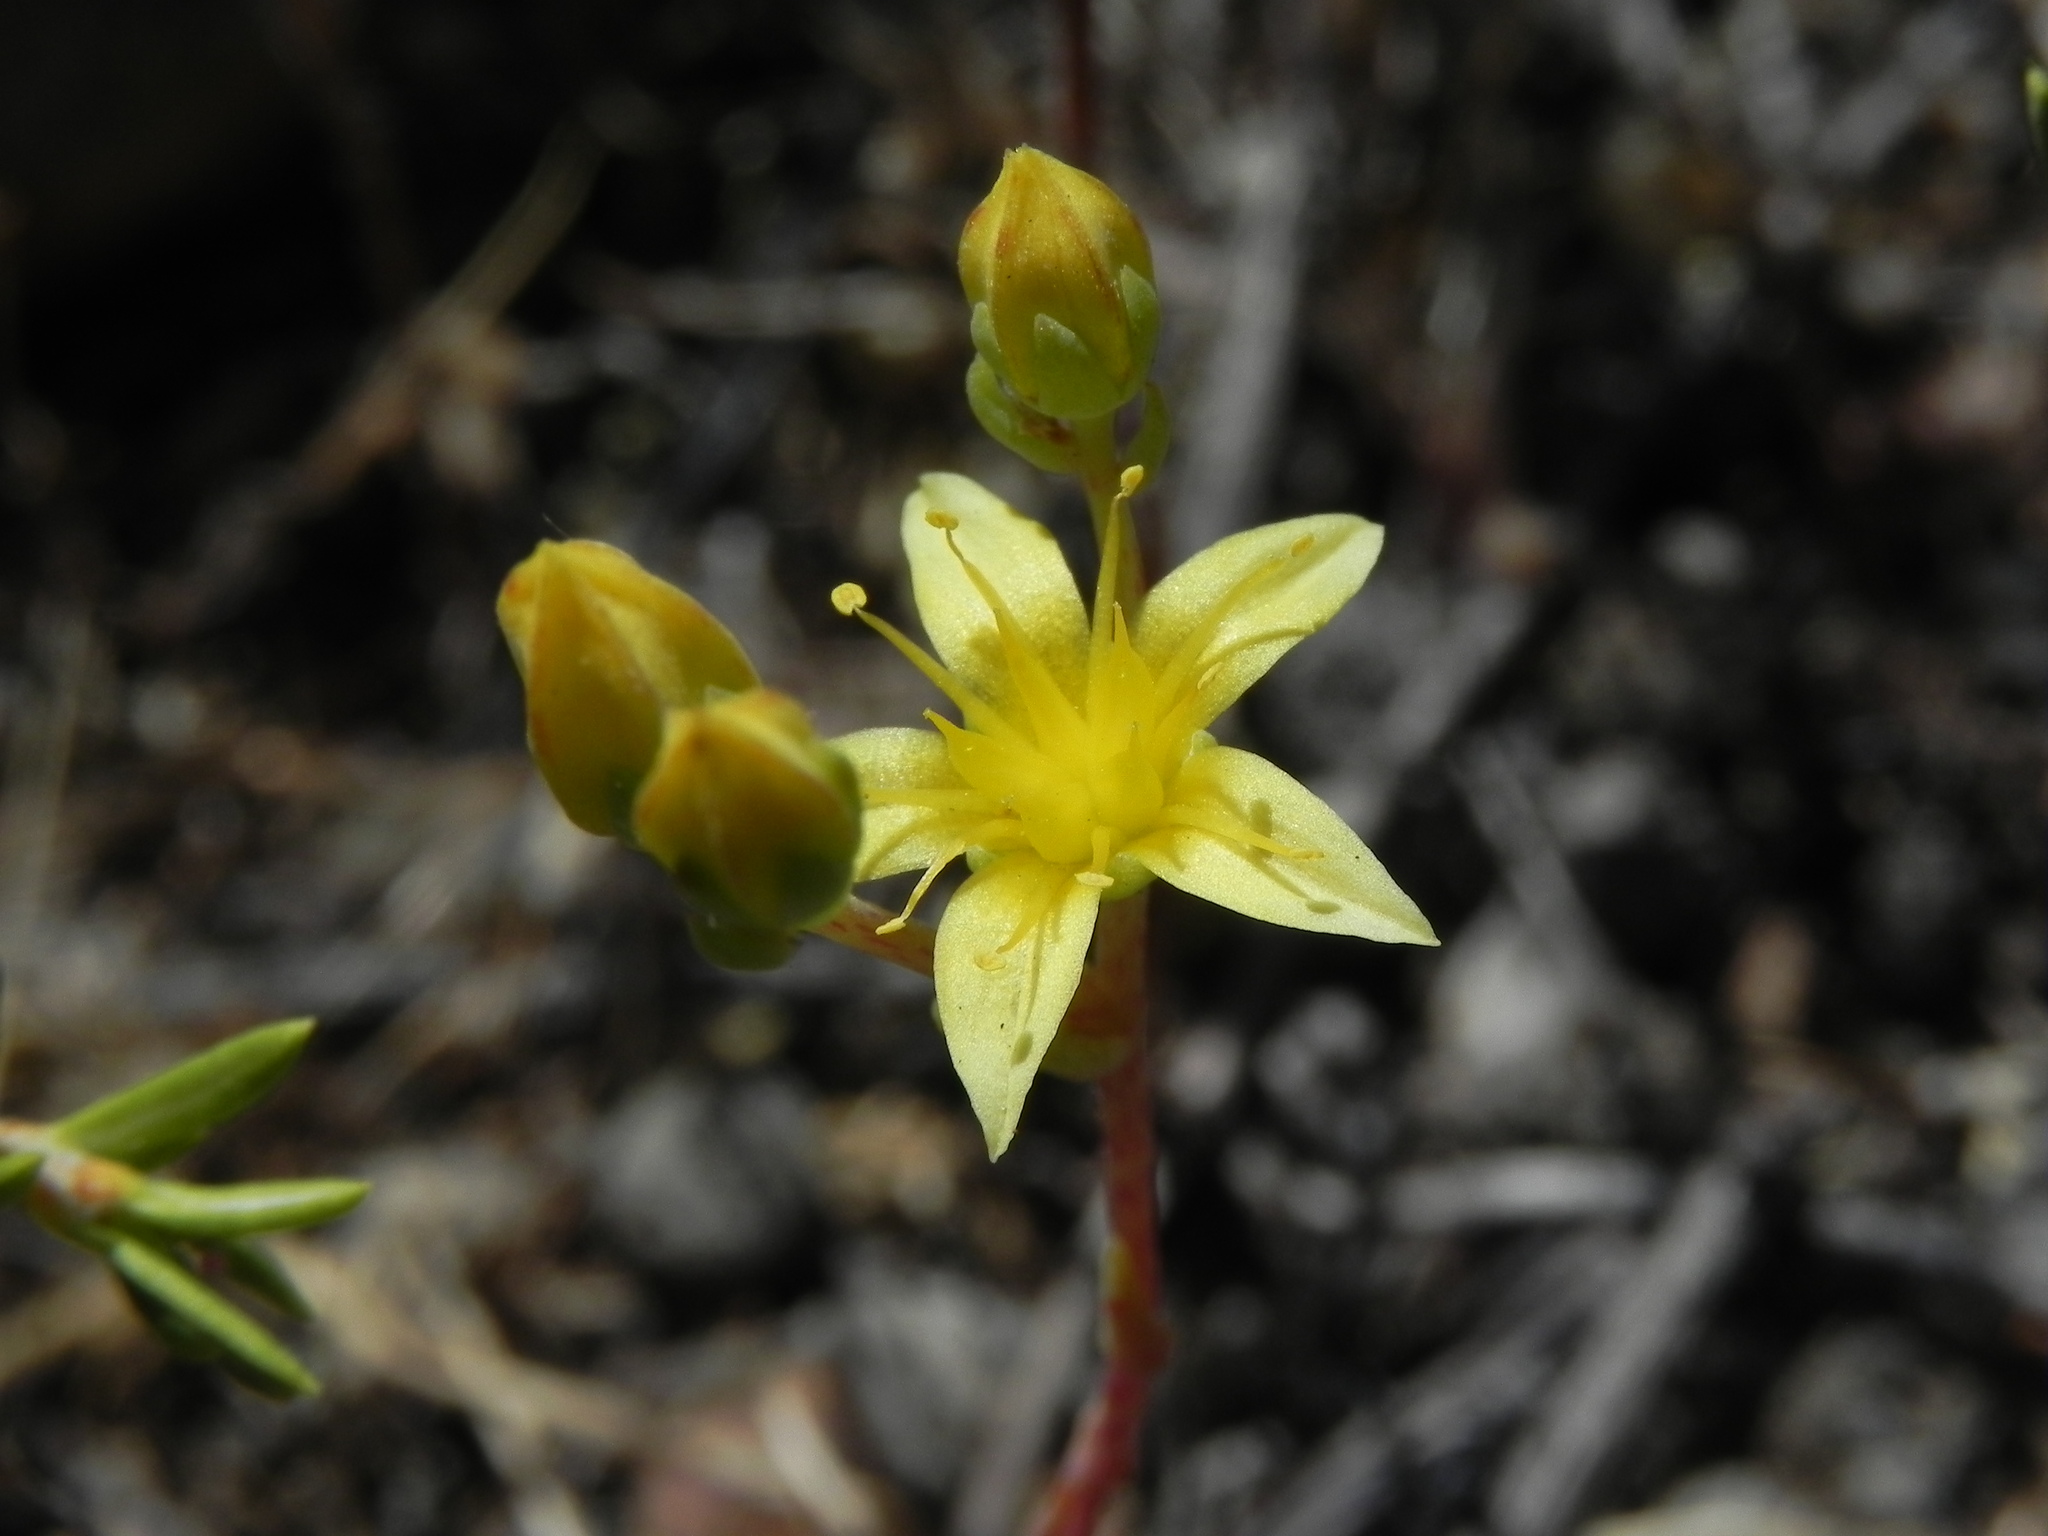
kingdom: Plantae
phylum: Tracheophyta
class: Magnoliopsida
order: Saxifragales
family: Crassulaceae
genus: Dudleya
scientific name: Dudleya variegata
